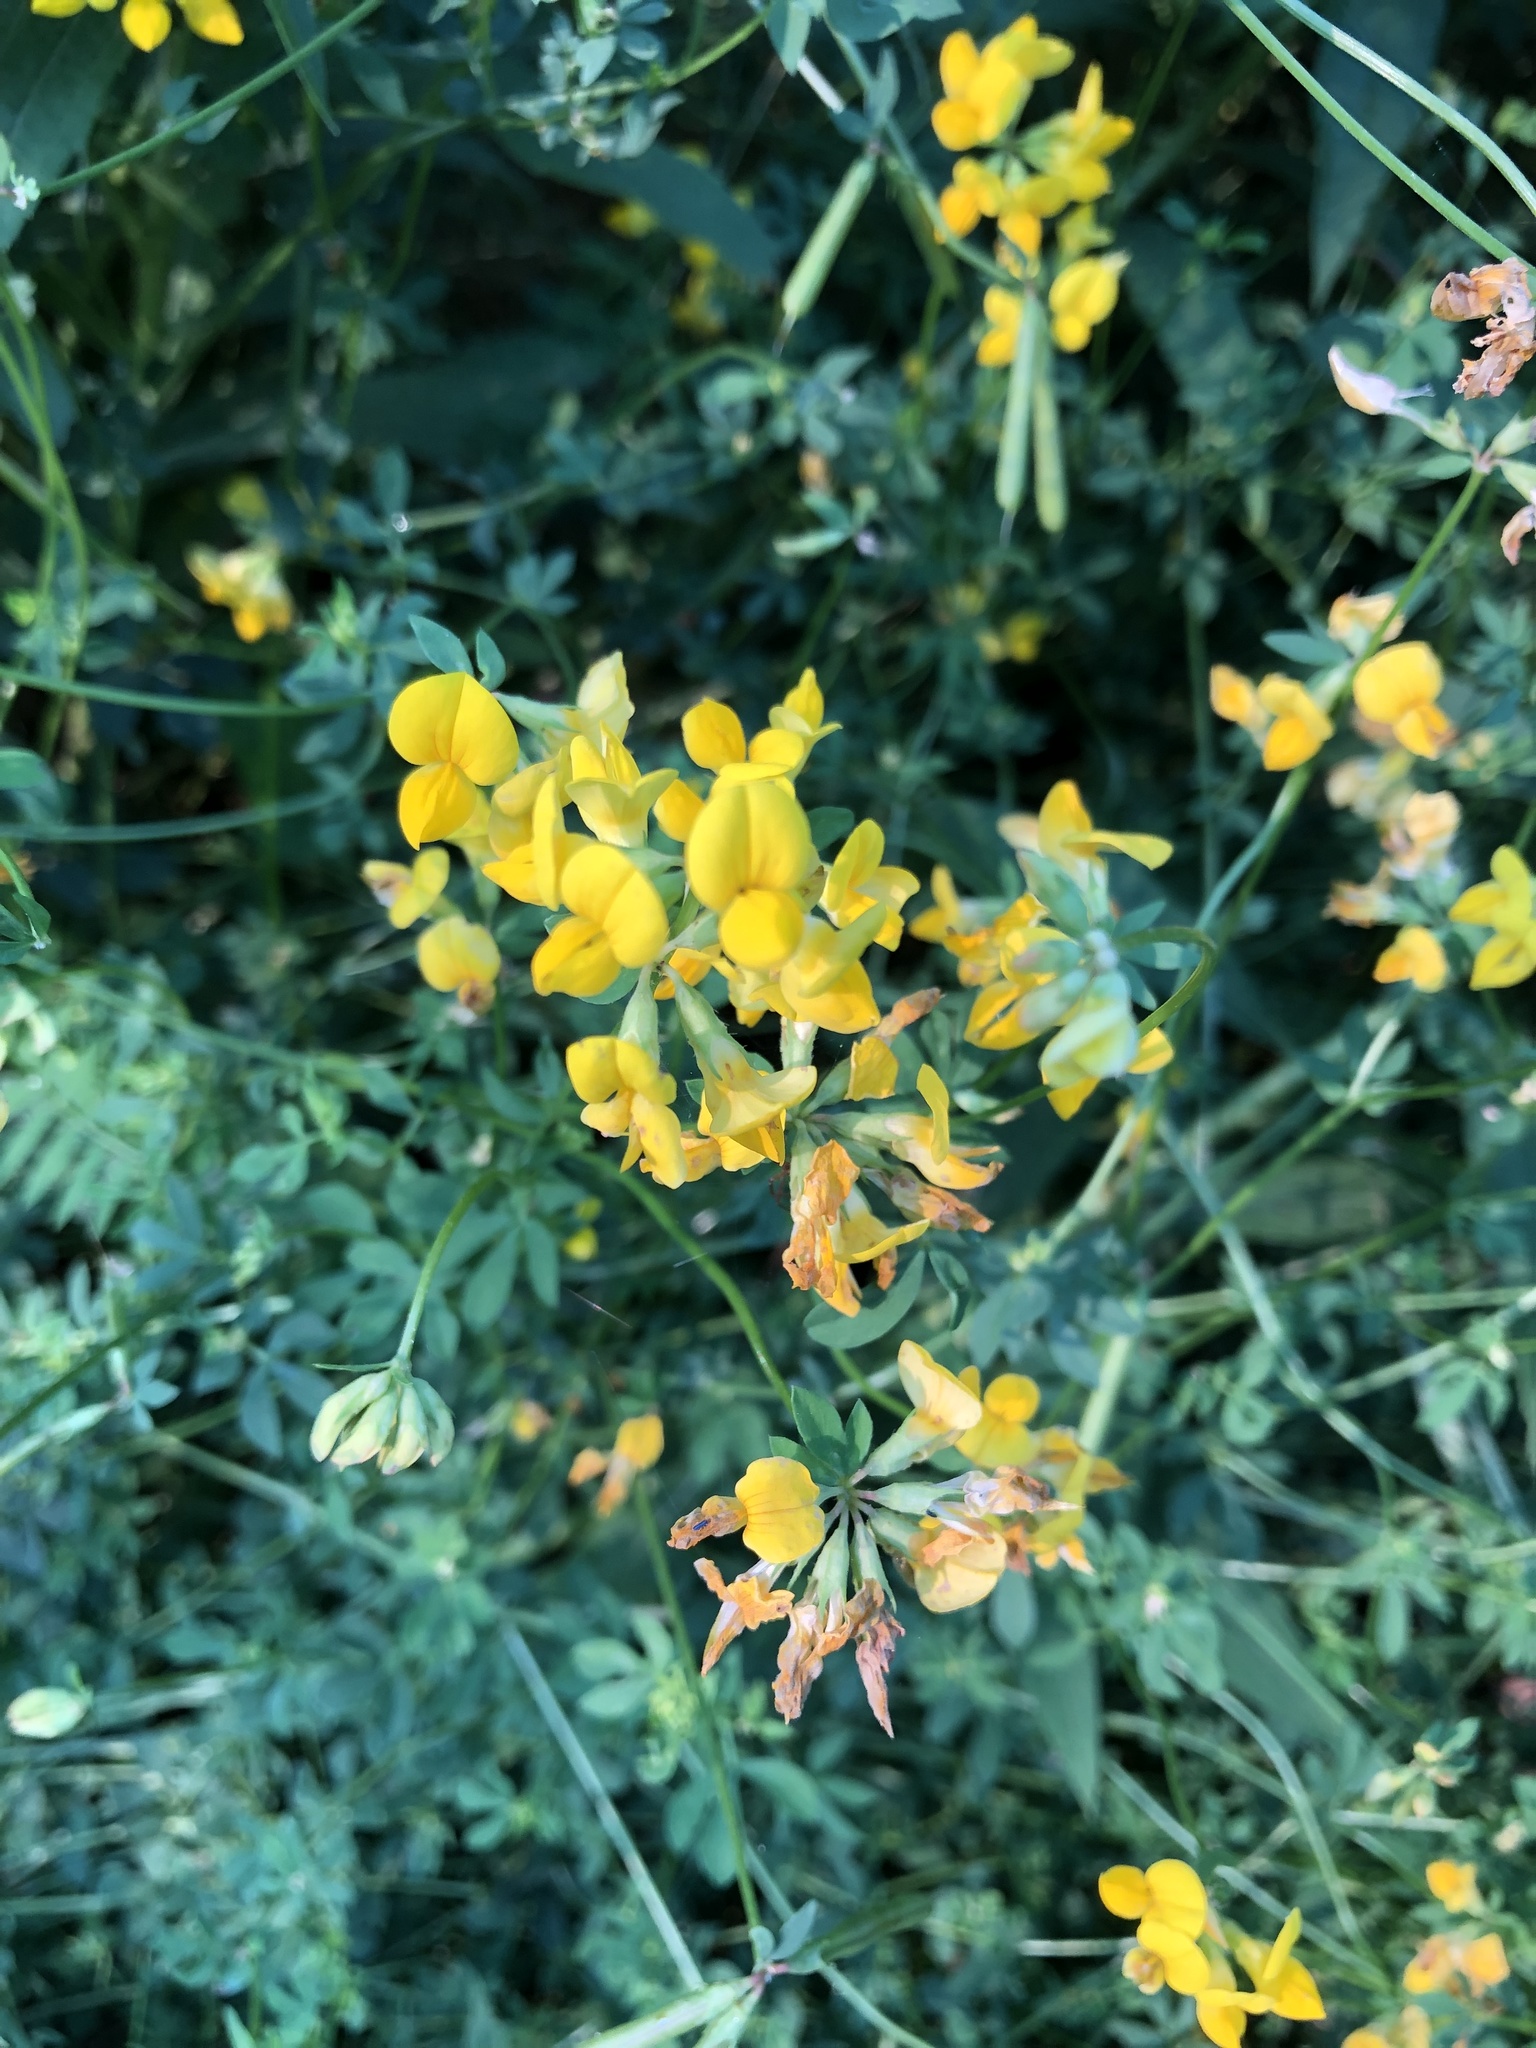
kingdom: Plantae
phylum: Tracheophyta
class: Magnoliopsida
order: Fabales
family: Fabaceae
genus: Lotus
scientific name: Lotus corniculatus
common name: Common bird's-foot-trefoil
